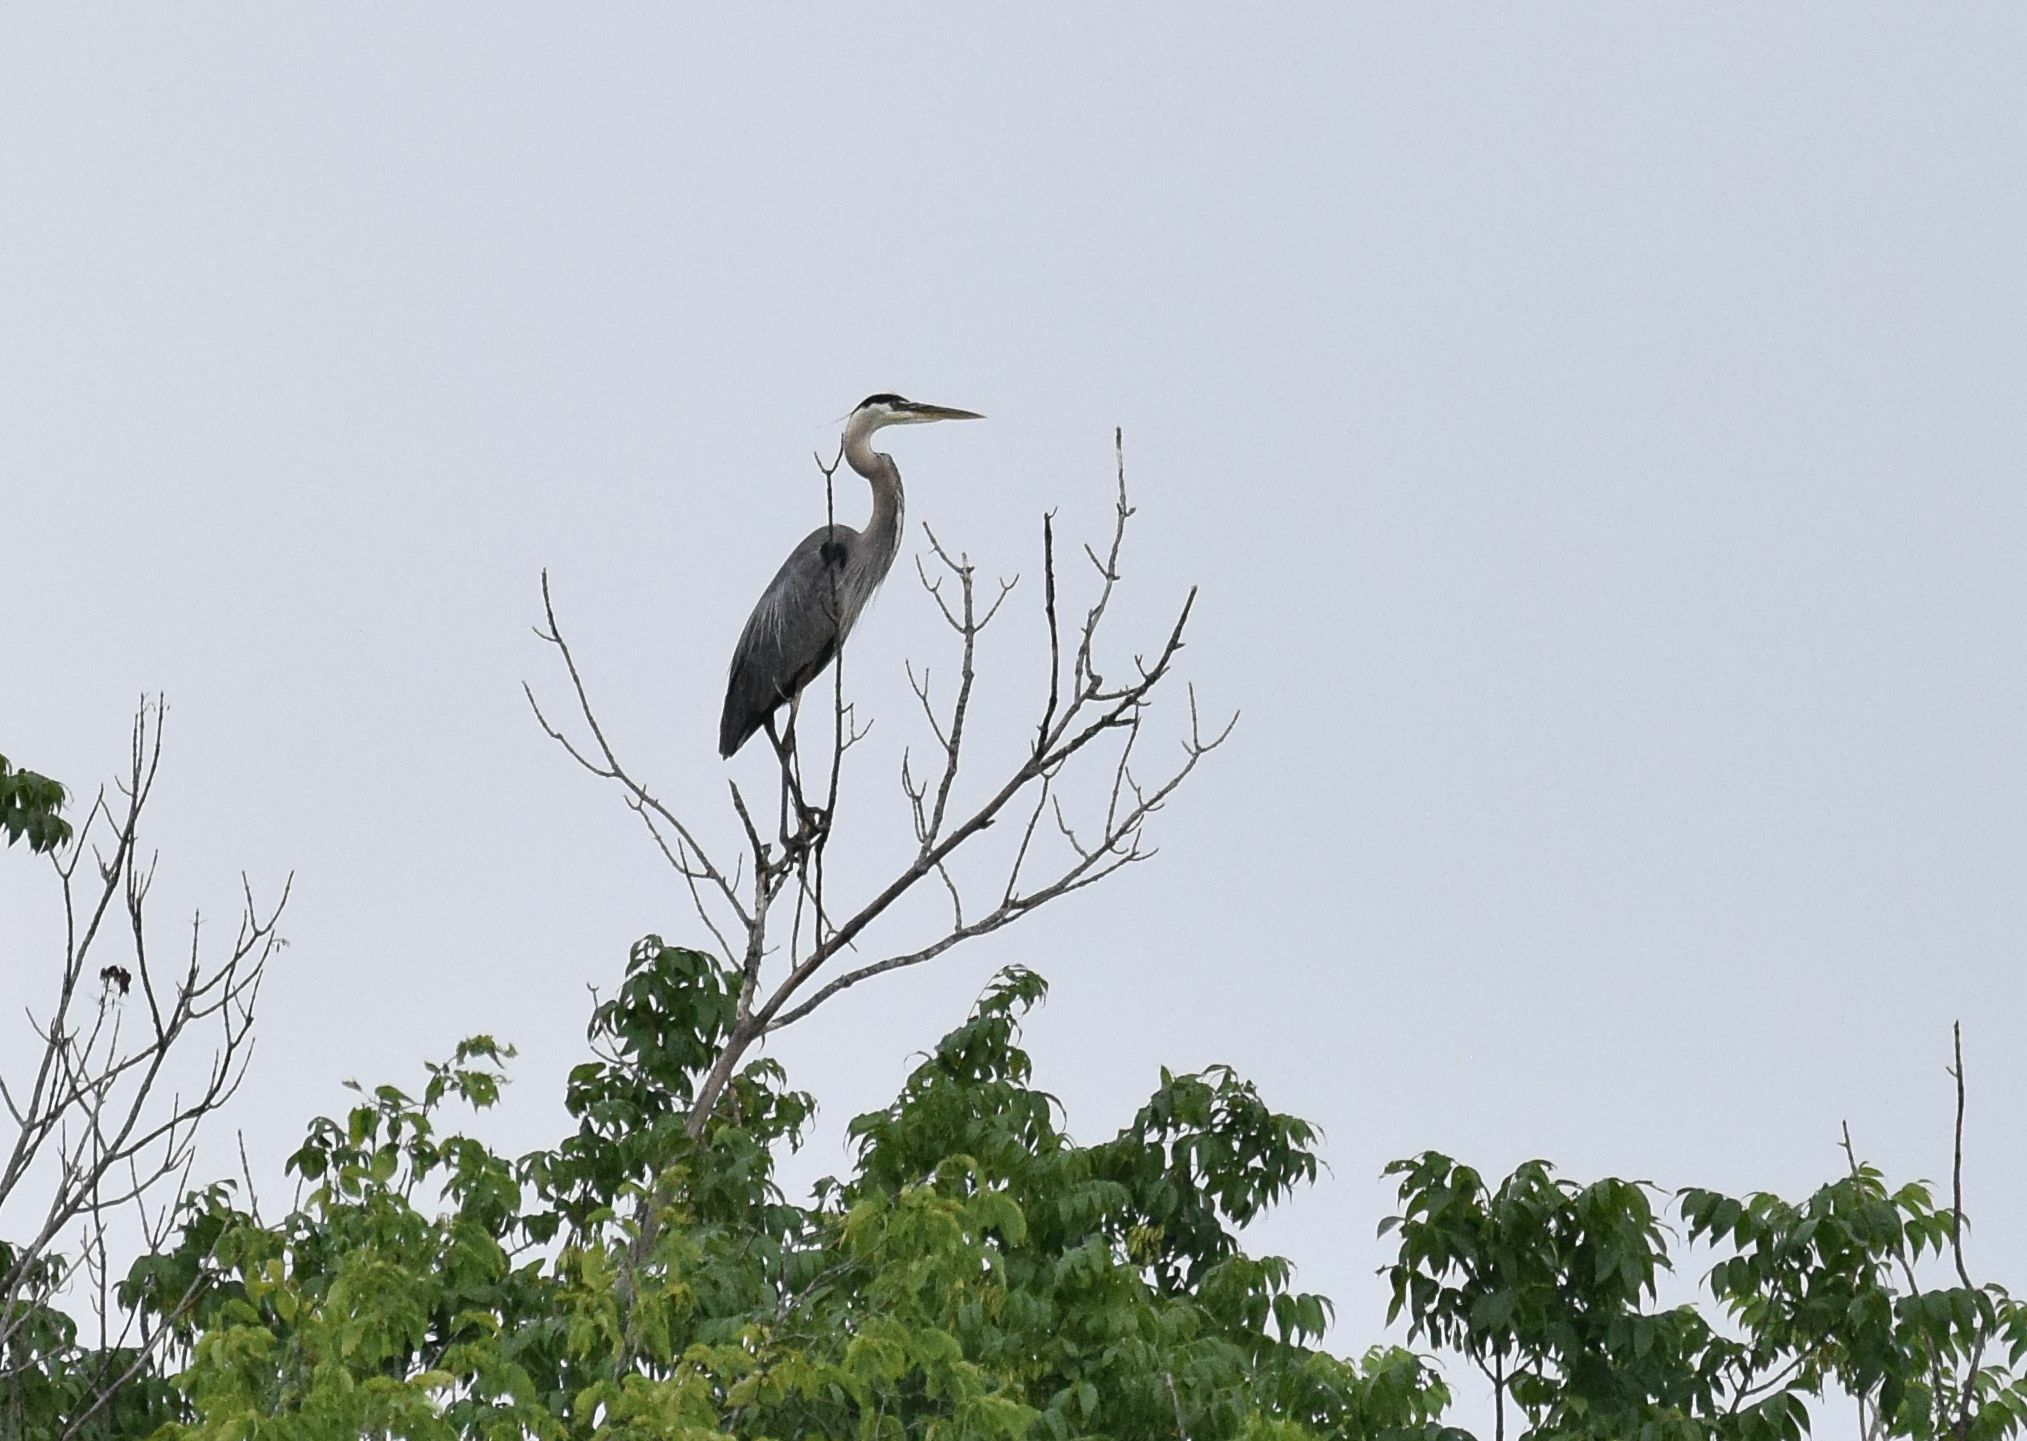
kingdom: Animalia
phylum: Chordata
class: Aves
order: Pelecaniformes
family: Ardeidae
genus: Ardea
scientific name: Ardea herodias
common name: Great blue heron
